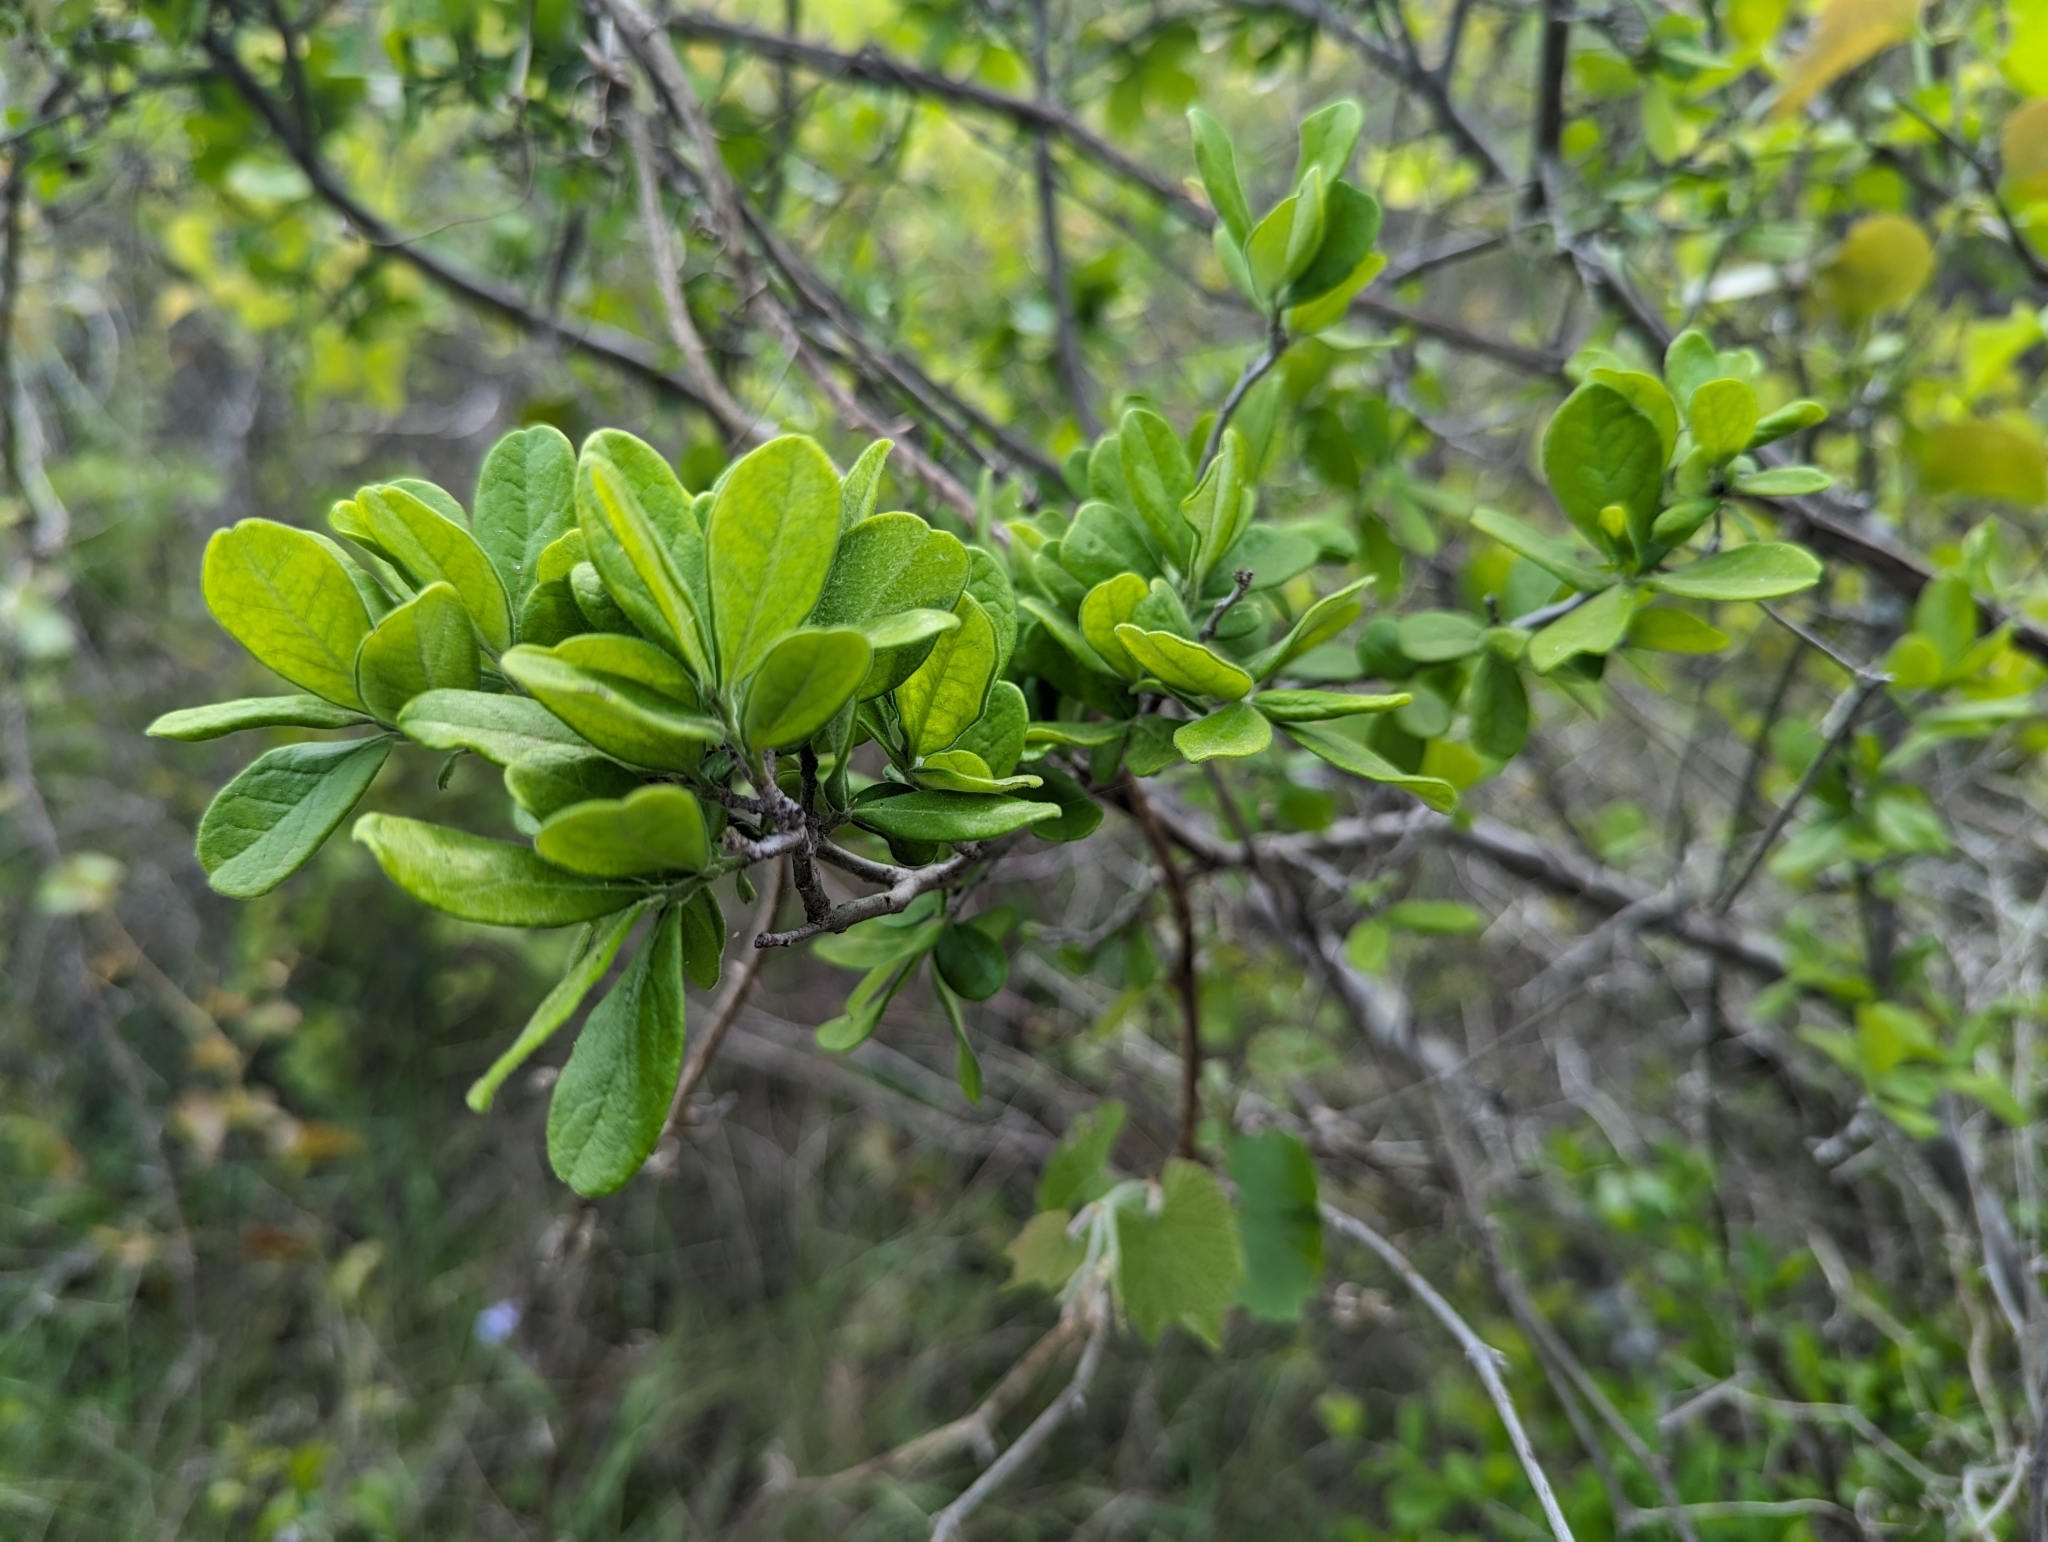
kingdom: Plantae
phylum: Tracheophyta
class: Magnoliopsida
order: Ericales
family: Ebenaceae
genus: Diospyros
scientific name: Diospyros texana
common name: Texas persimmon
